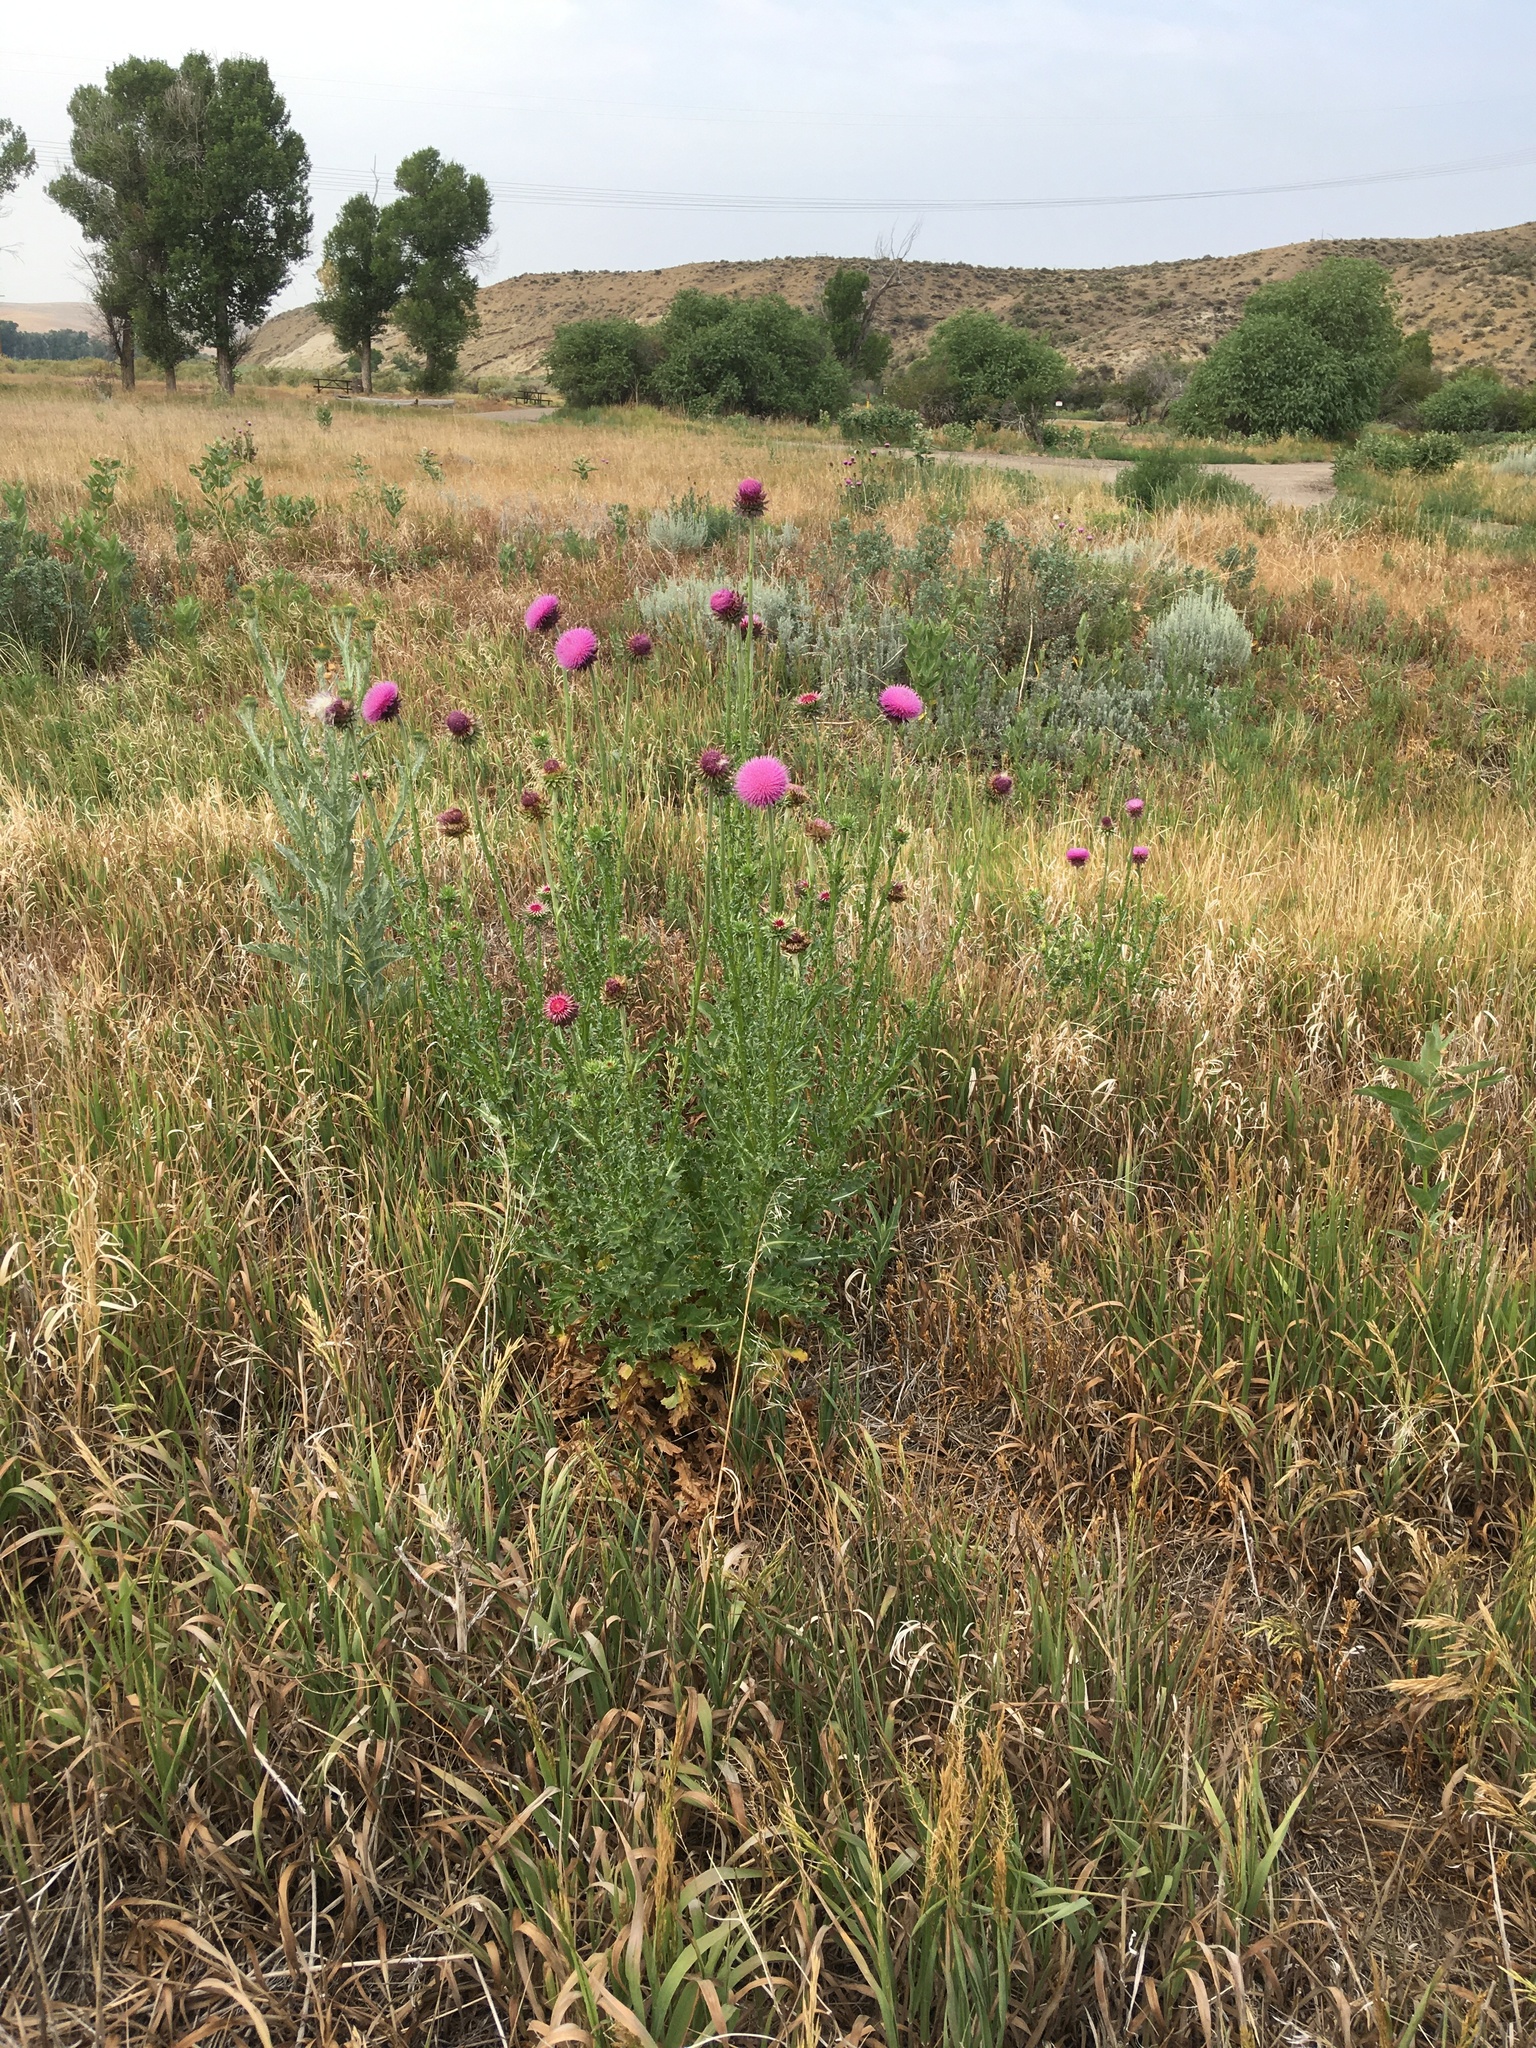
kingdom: Plantae
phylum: Tracheophyta
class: Magnoliopsida
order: Asterales
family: Asteraceae
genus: Carduus
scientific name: Carduus nutans
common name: Musk thistle
